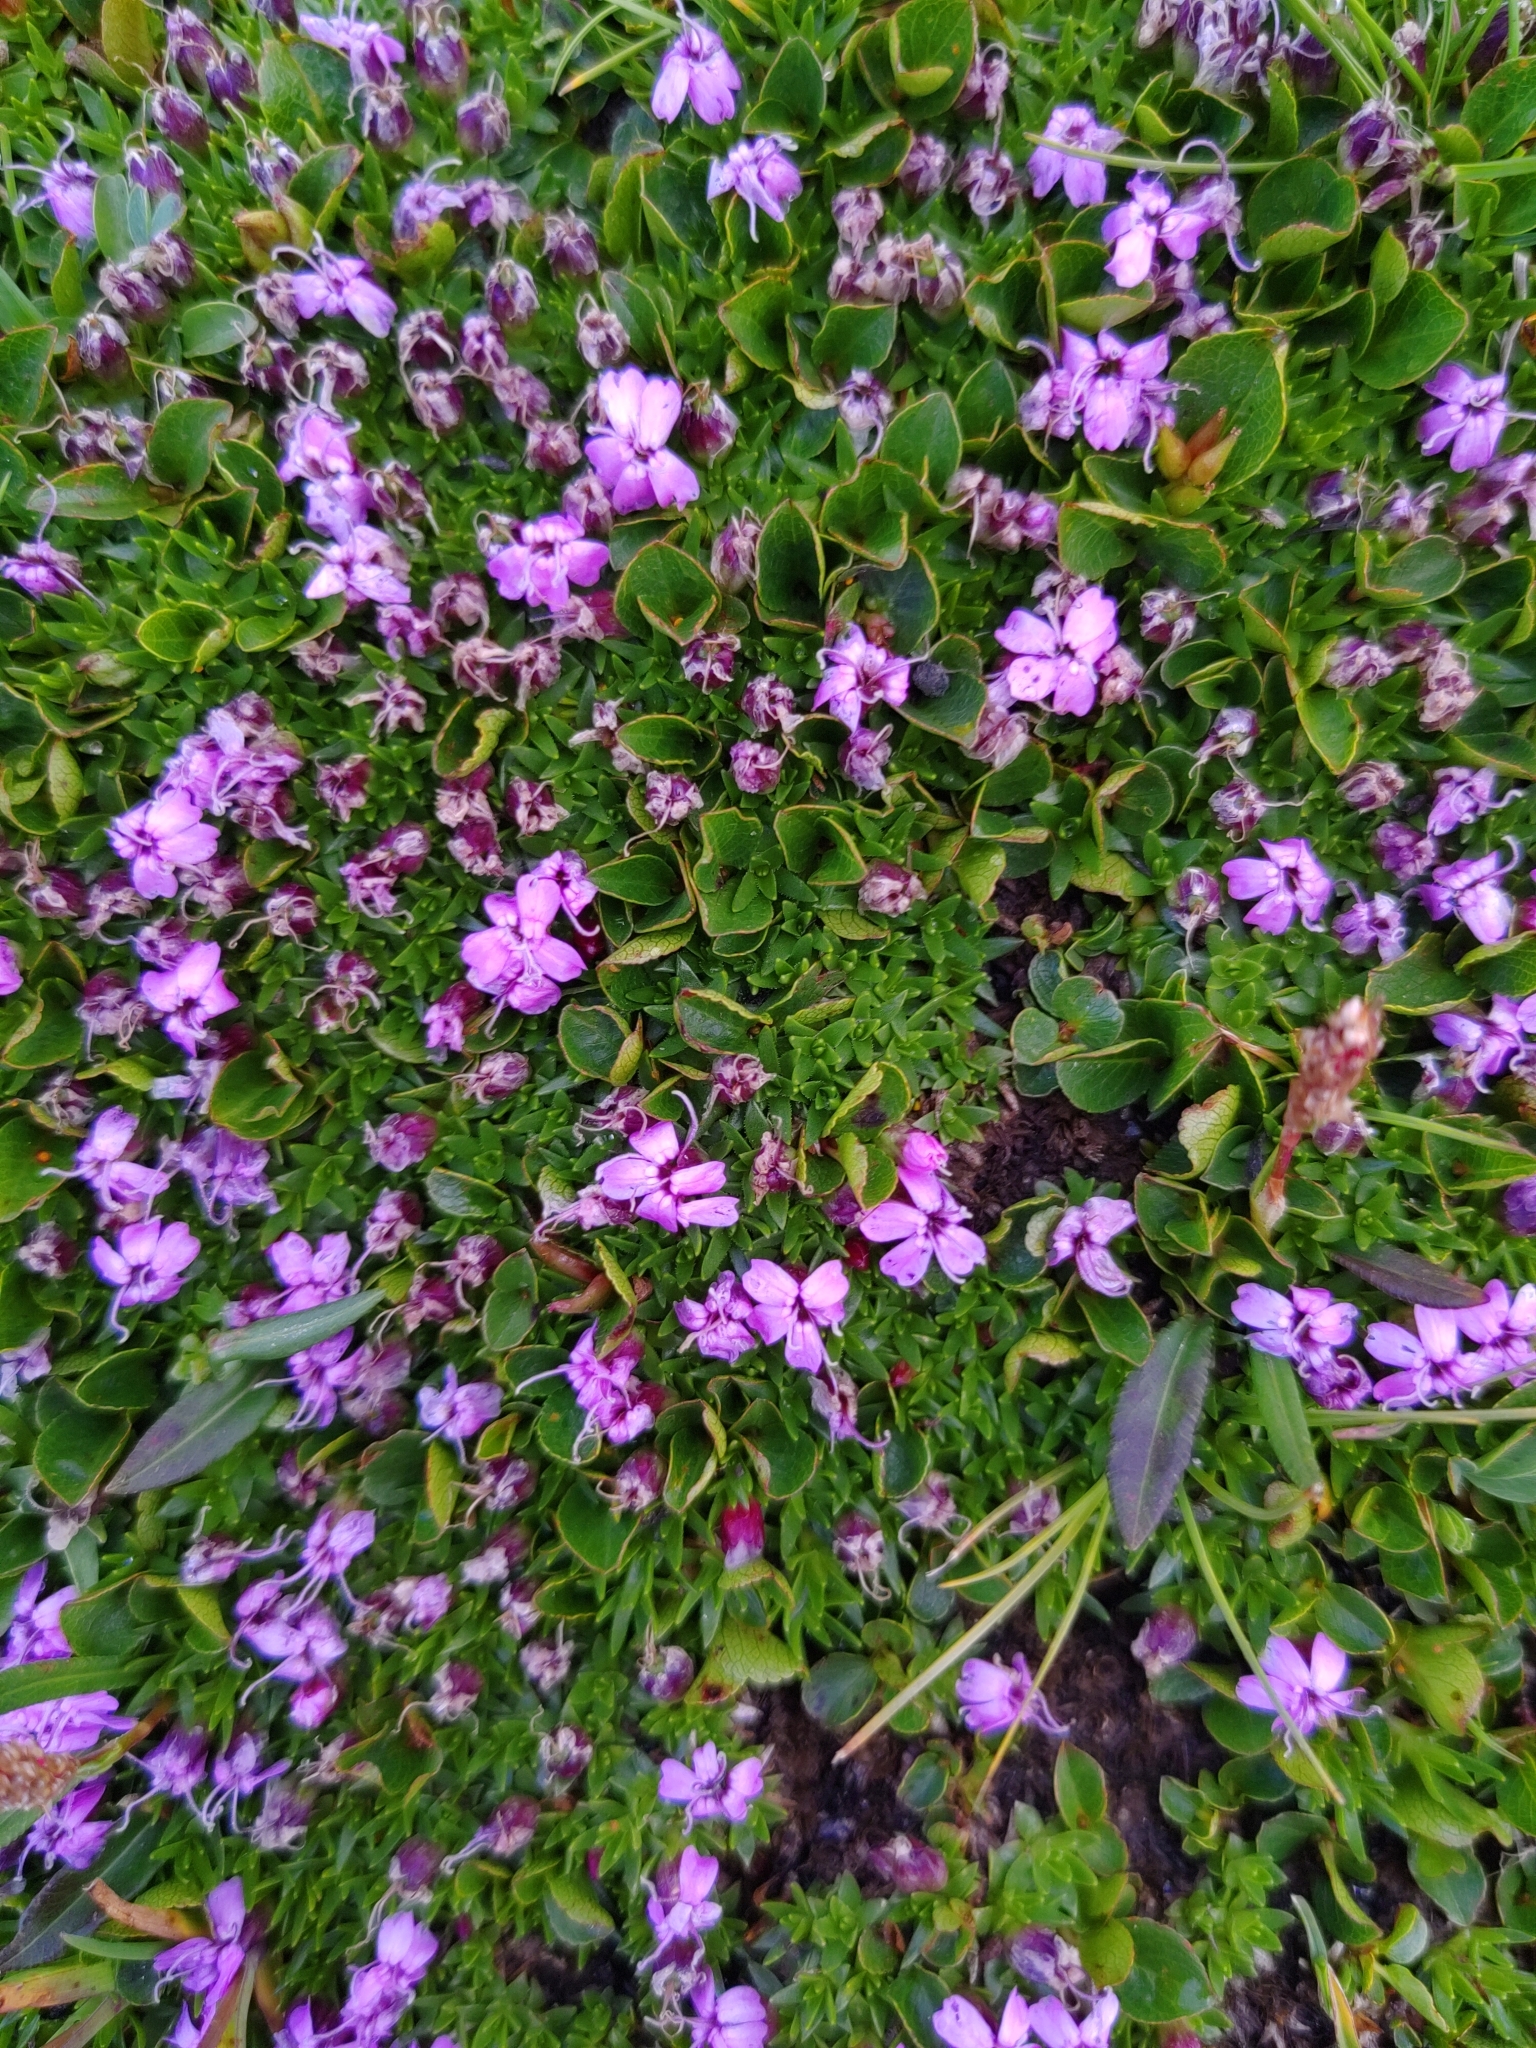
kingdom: Plantae
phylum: Tracheophyta
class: Magnoliopsida
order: Caryophyllales
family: Caryophyllaceae
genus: Silene
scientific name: Silene acaulis
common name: Moss campion
